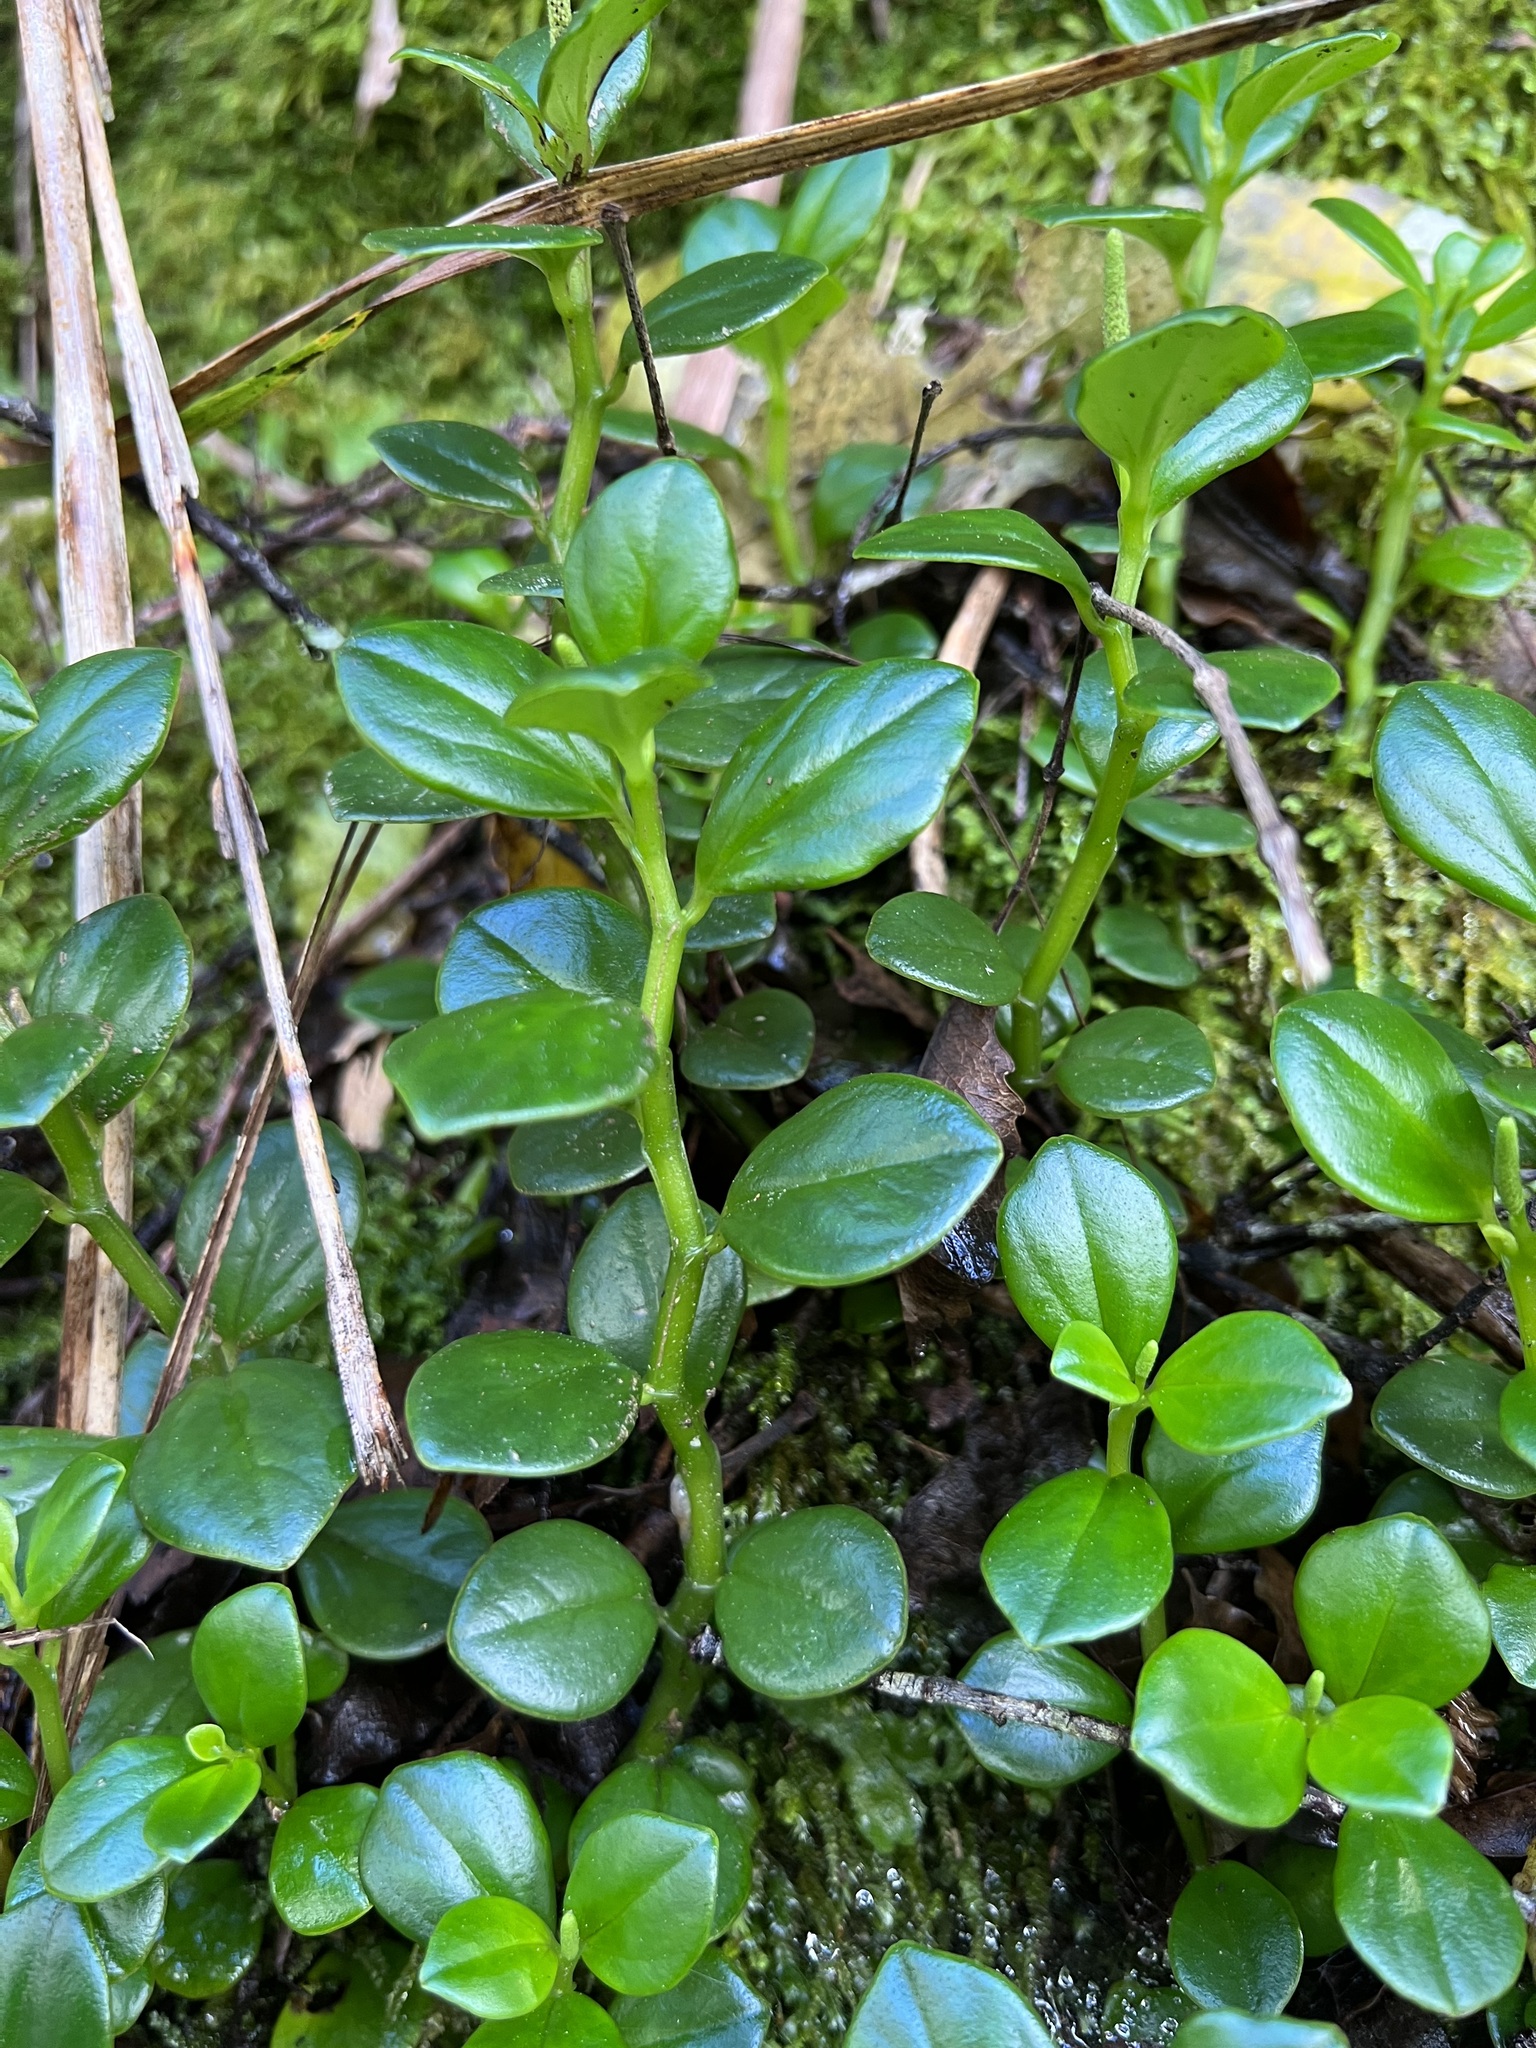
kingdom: Plantae
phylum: Tracheophyta
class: Magnoliopsida
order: Piperales
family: Piperaceae
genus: Peperomia
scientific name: Peperomia urvilleana
